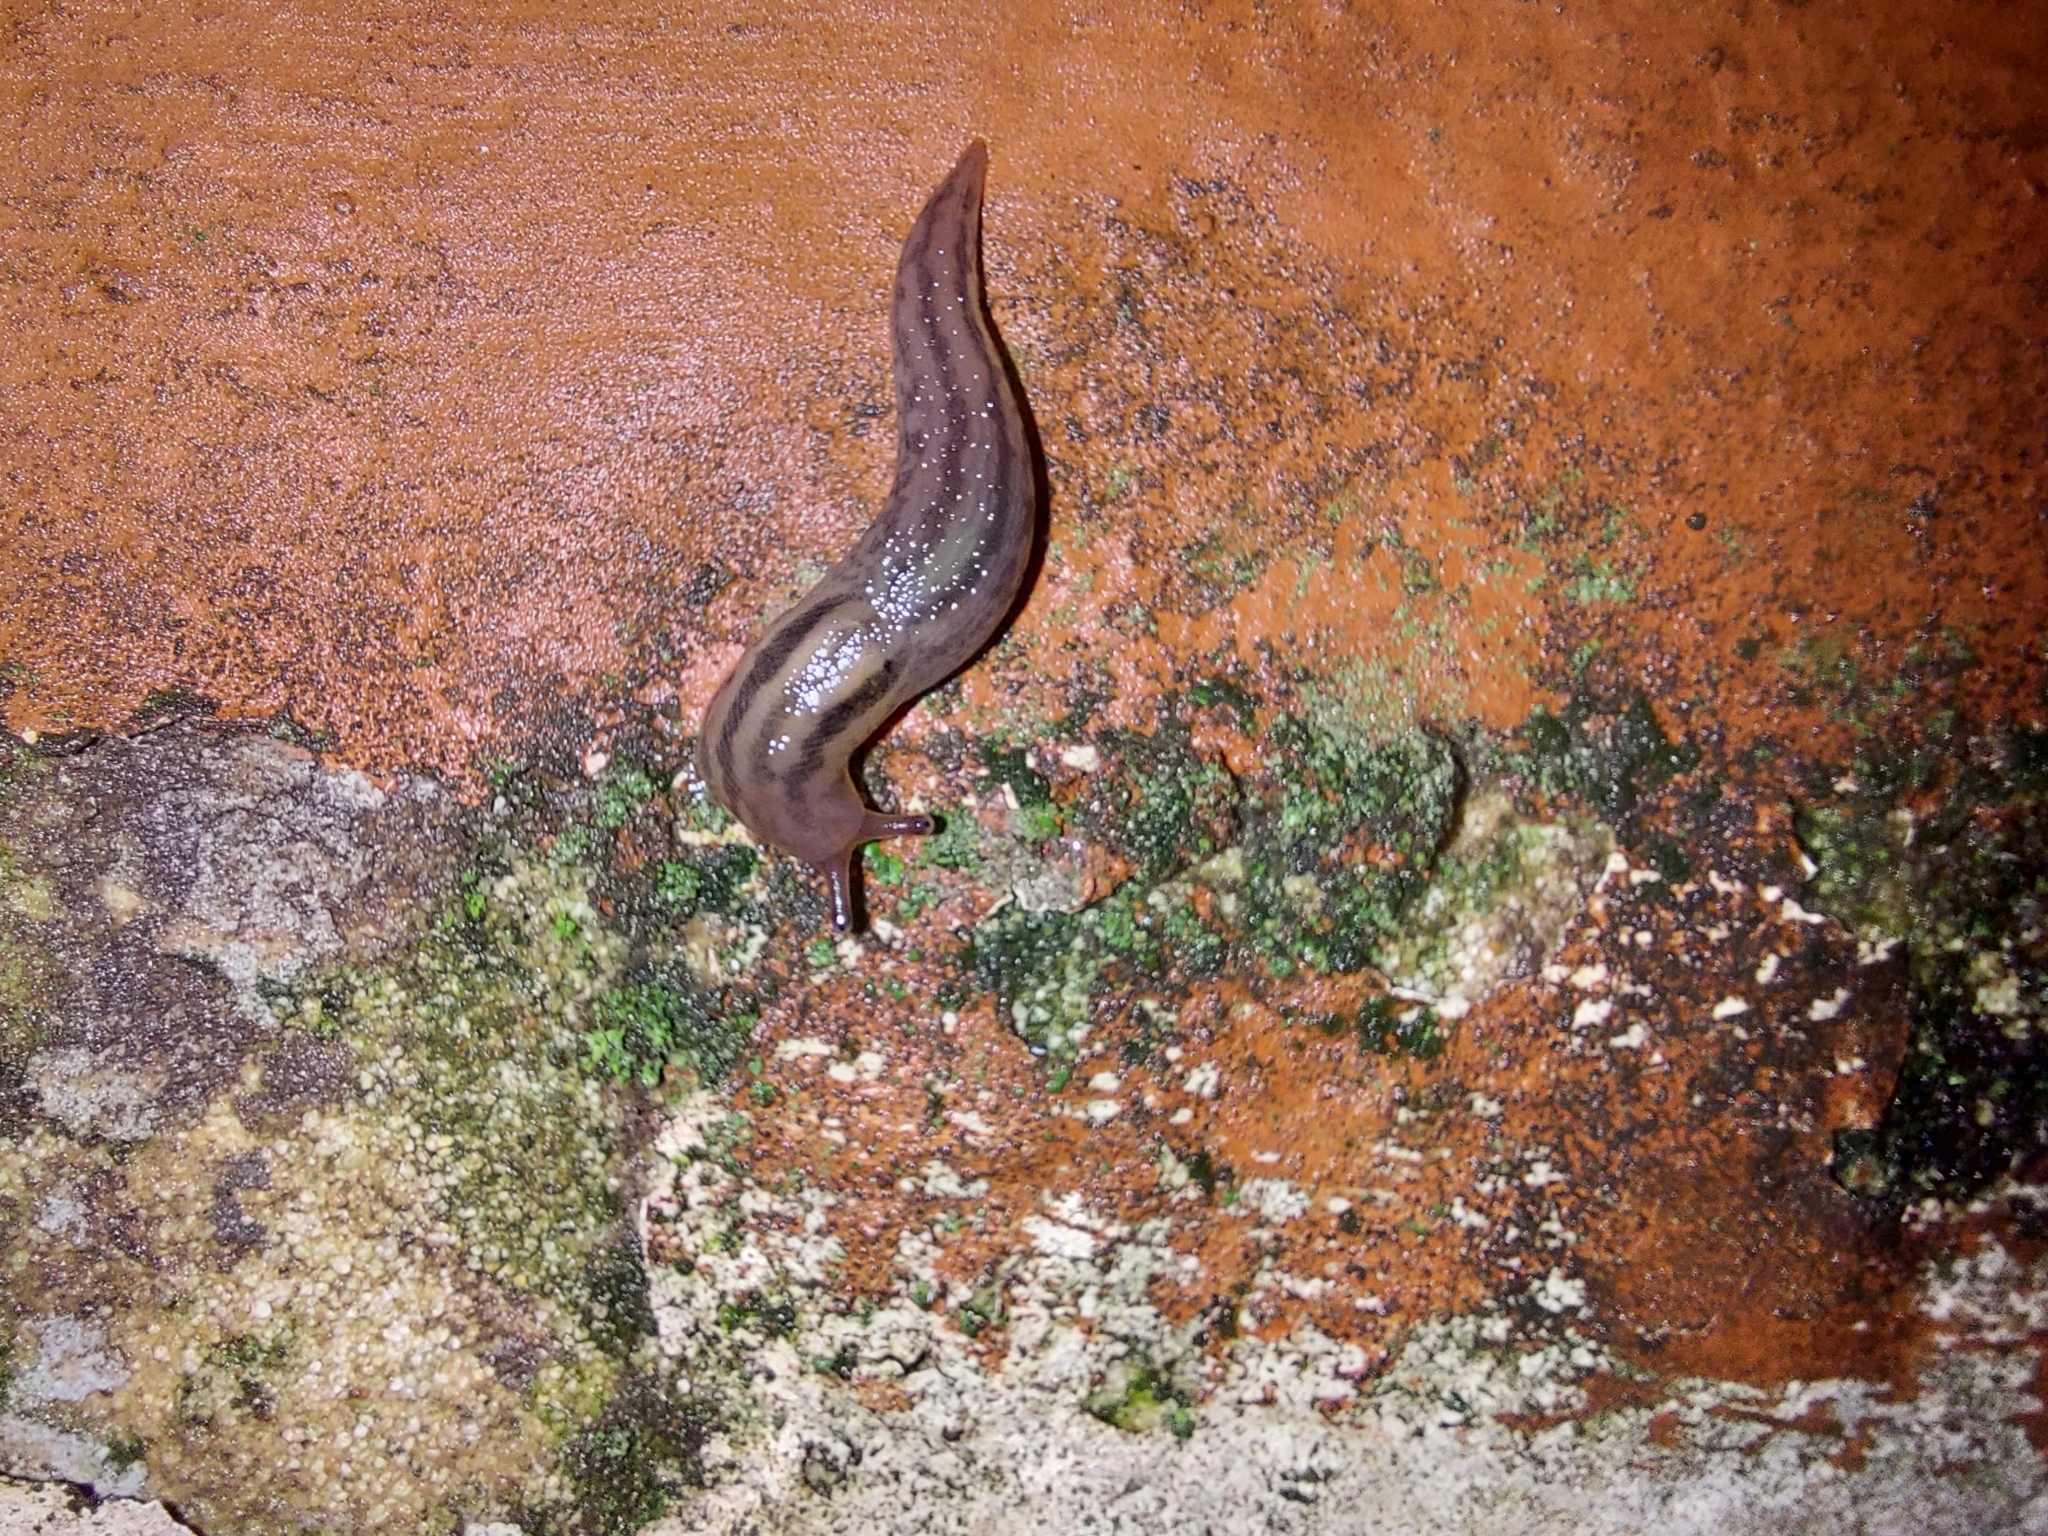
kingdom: Animalia
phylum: Mollusca
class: Gastropoda
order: Stylommatophora
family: Limacidae
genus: Ambigolimax
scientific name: Ambigolimax
